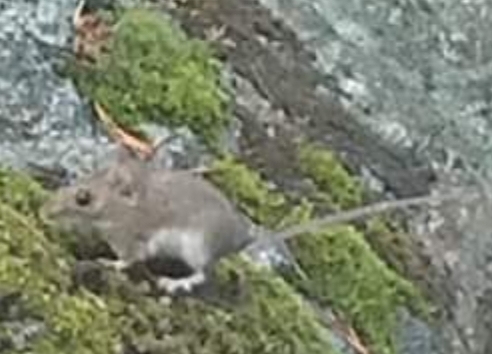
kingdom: Animalia
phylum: Chordata
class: Mammalia
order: Rodentia
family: Muridae
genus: Apodemus
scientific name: Apodemus sylvaticus
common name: Wood mouse
